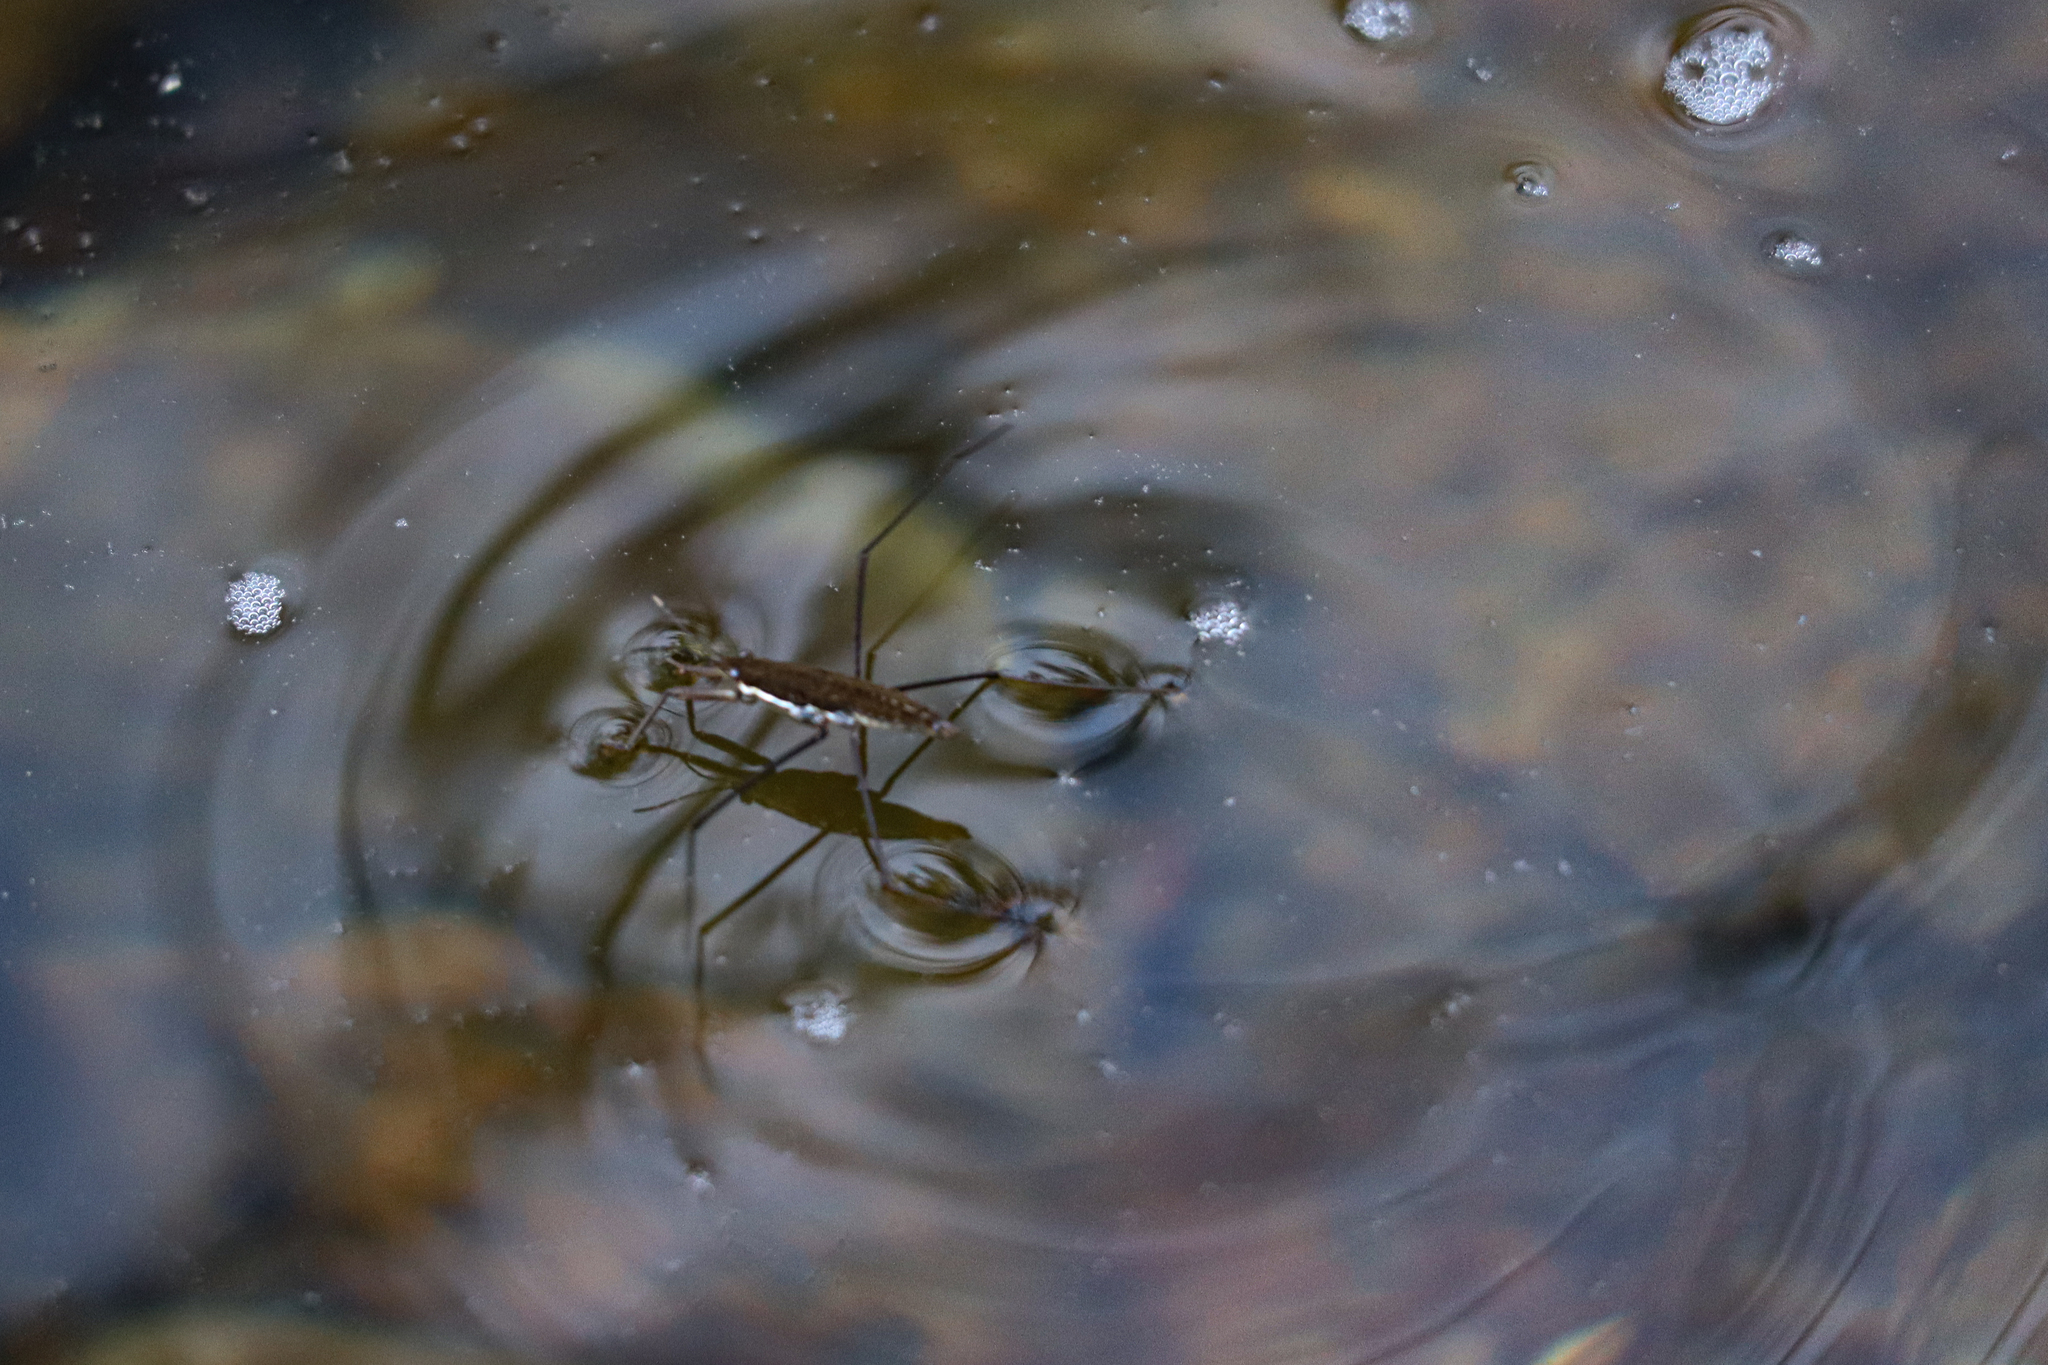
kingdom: Animalia
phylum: Arthropoda
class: Insecta
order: Hemiptera
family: Gerridae
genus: Aquarius
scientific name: Aquarius remigis
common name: Common water strider
